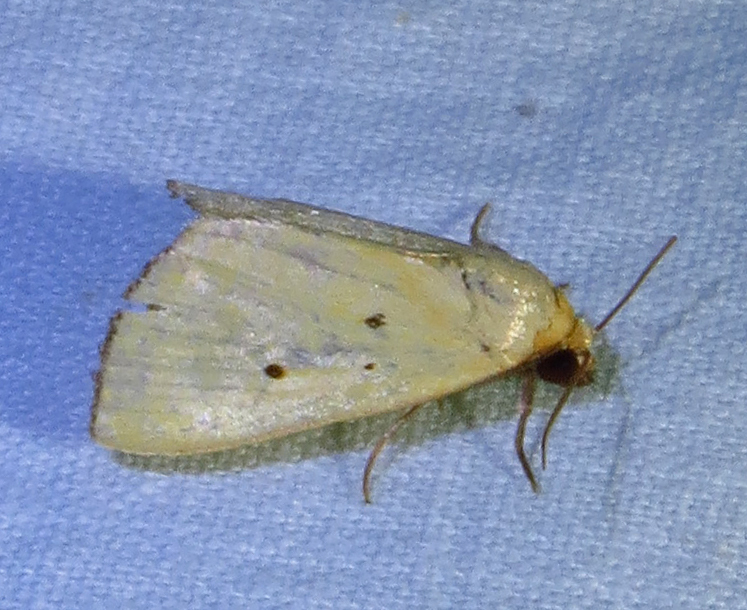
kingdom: Animalia
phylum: Arthropoda
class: Insecta
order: Lepidoptera
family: Noctuidae
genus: Marimatha
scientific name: Marimatha nigrofimbria
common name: Black-bordered lemon moth
